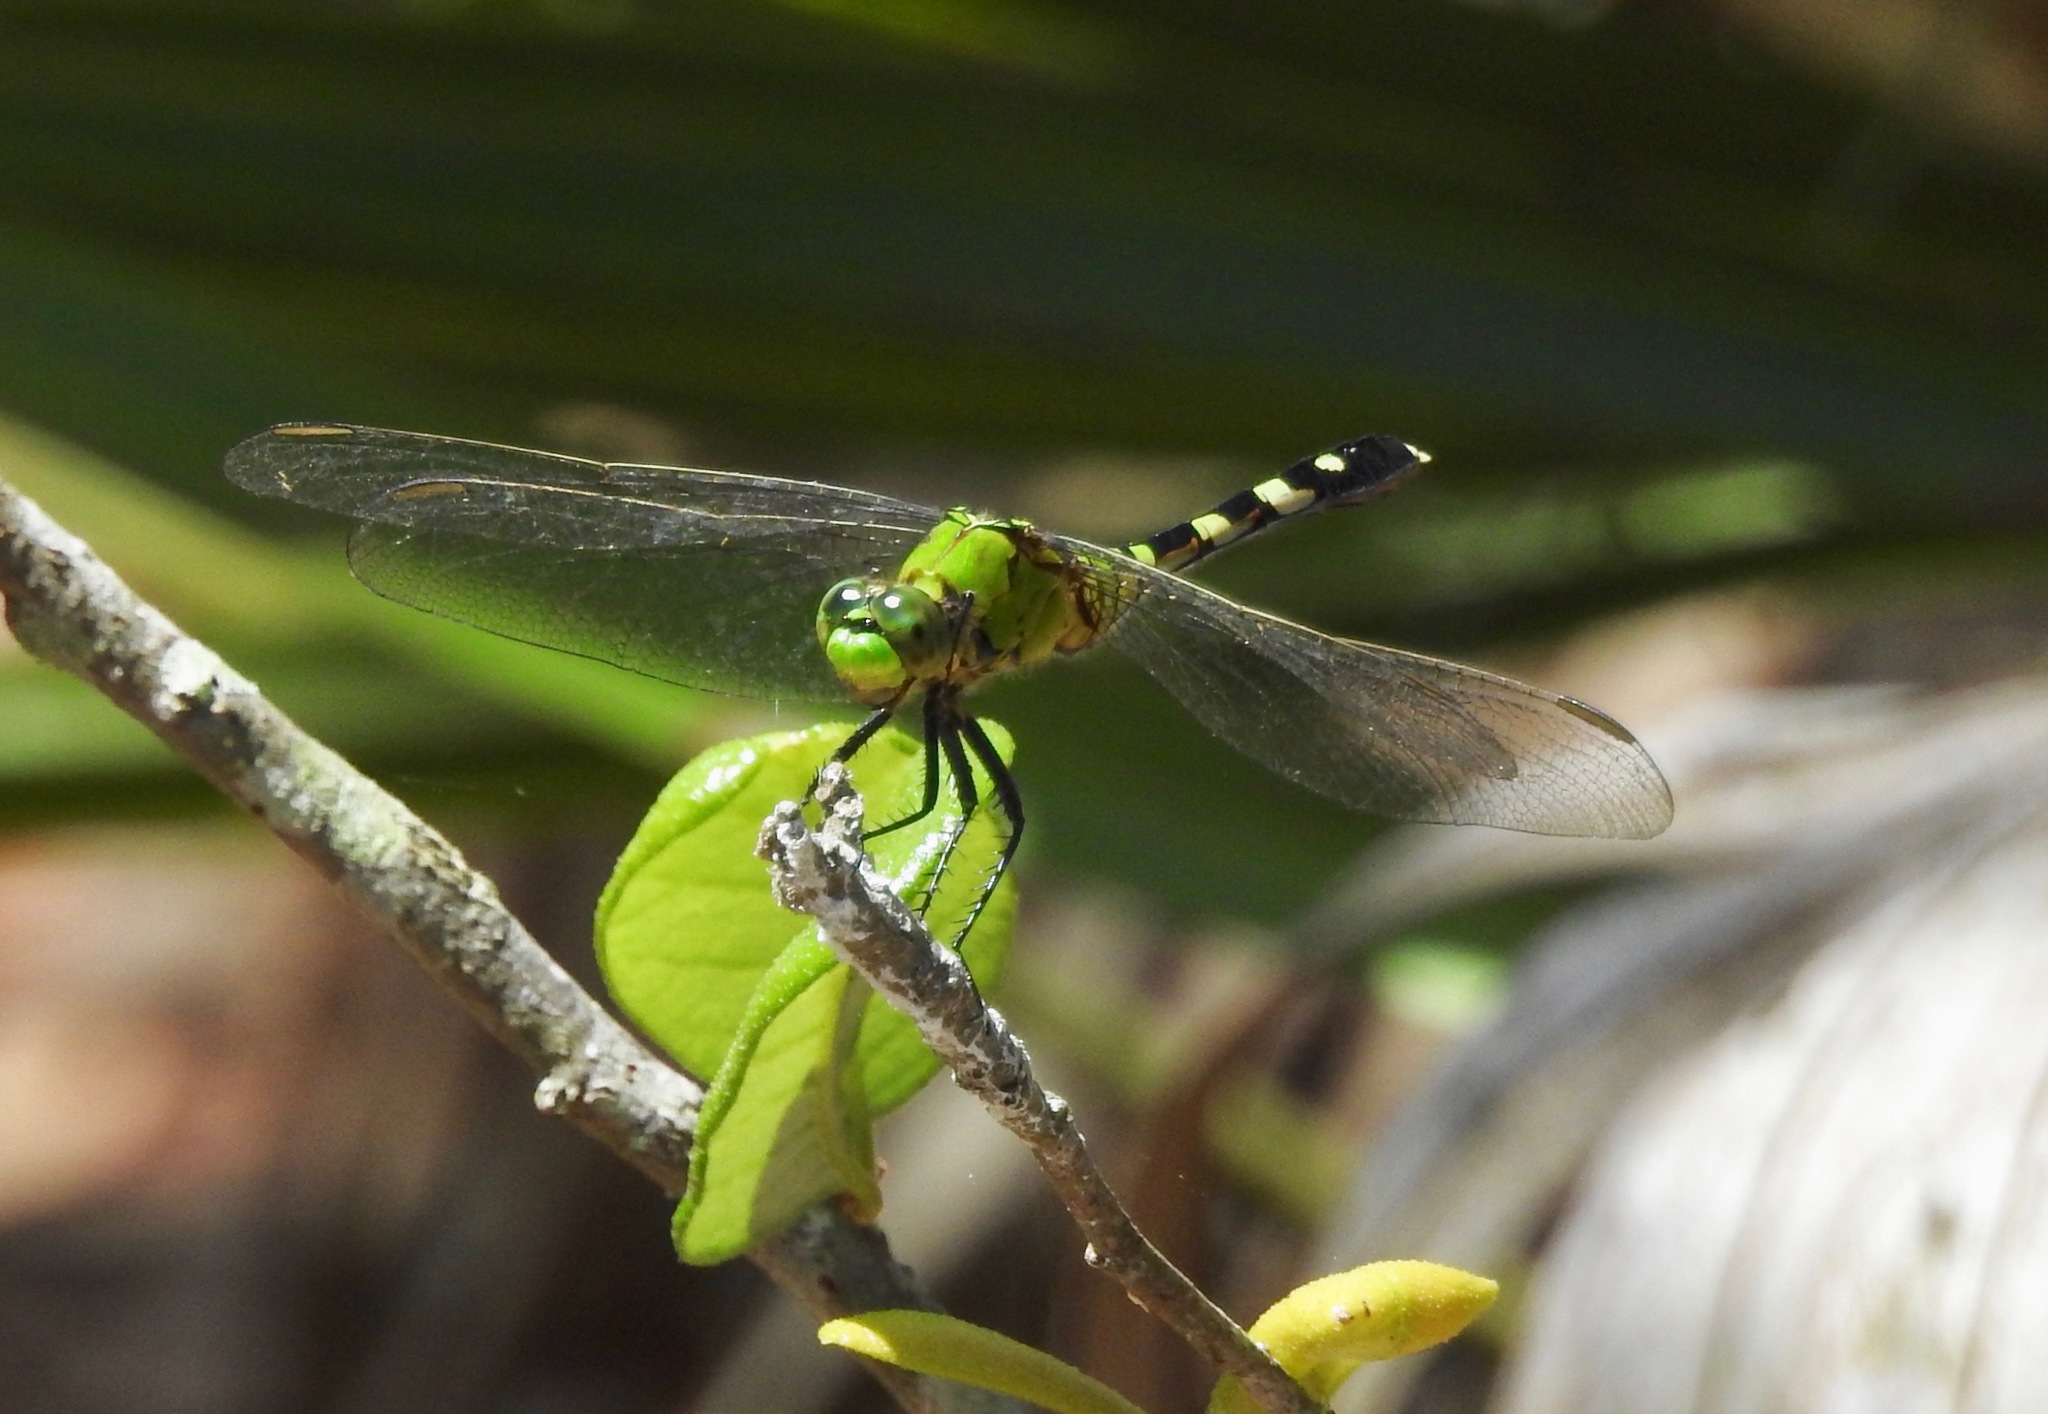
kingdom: Animalia
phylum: Arthropoda
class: Insecta
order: Odonata
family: Libellulidae
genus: Erythemis
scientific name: Erythemis simplicicollis
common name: Eastern pondhawk
